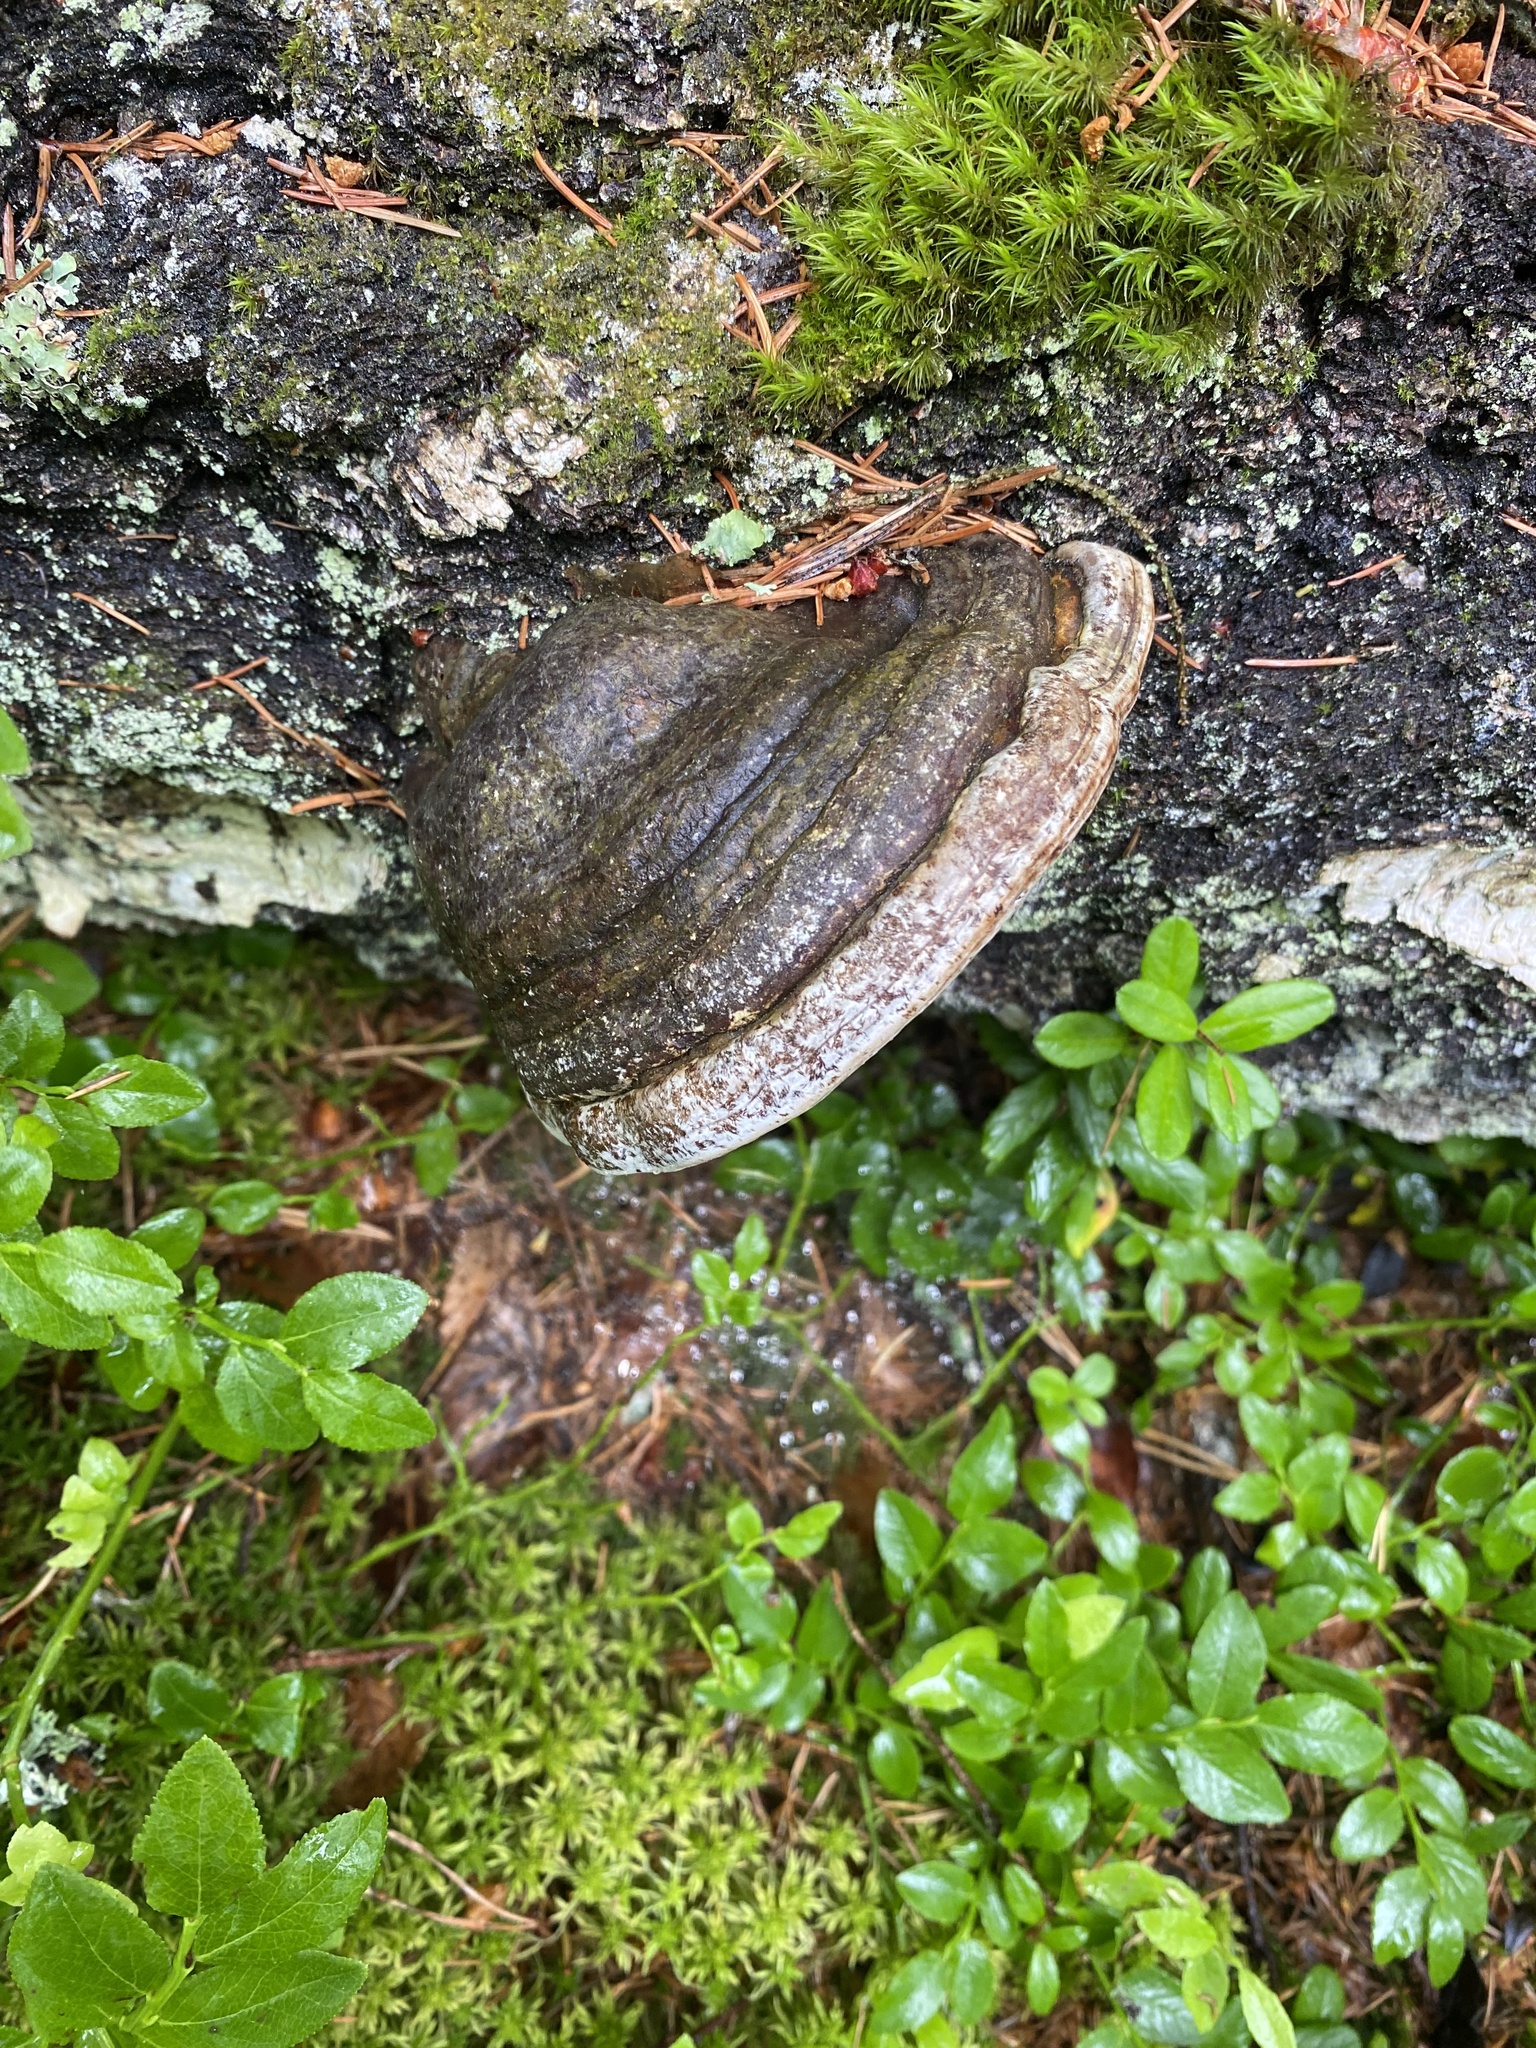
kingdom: Fungi
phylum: Basidiomycota
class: Agaricomycetes
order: Polyporales
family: Polyporaceae
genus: Fomes
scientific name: Fomes fomentarius
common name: Hoof fungus
